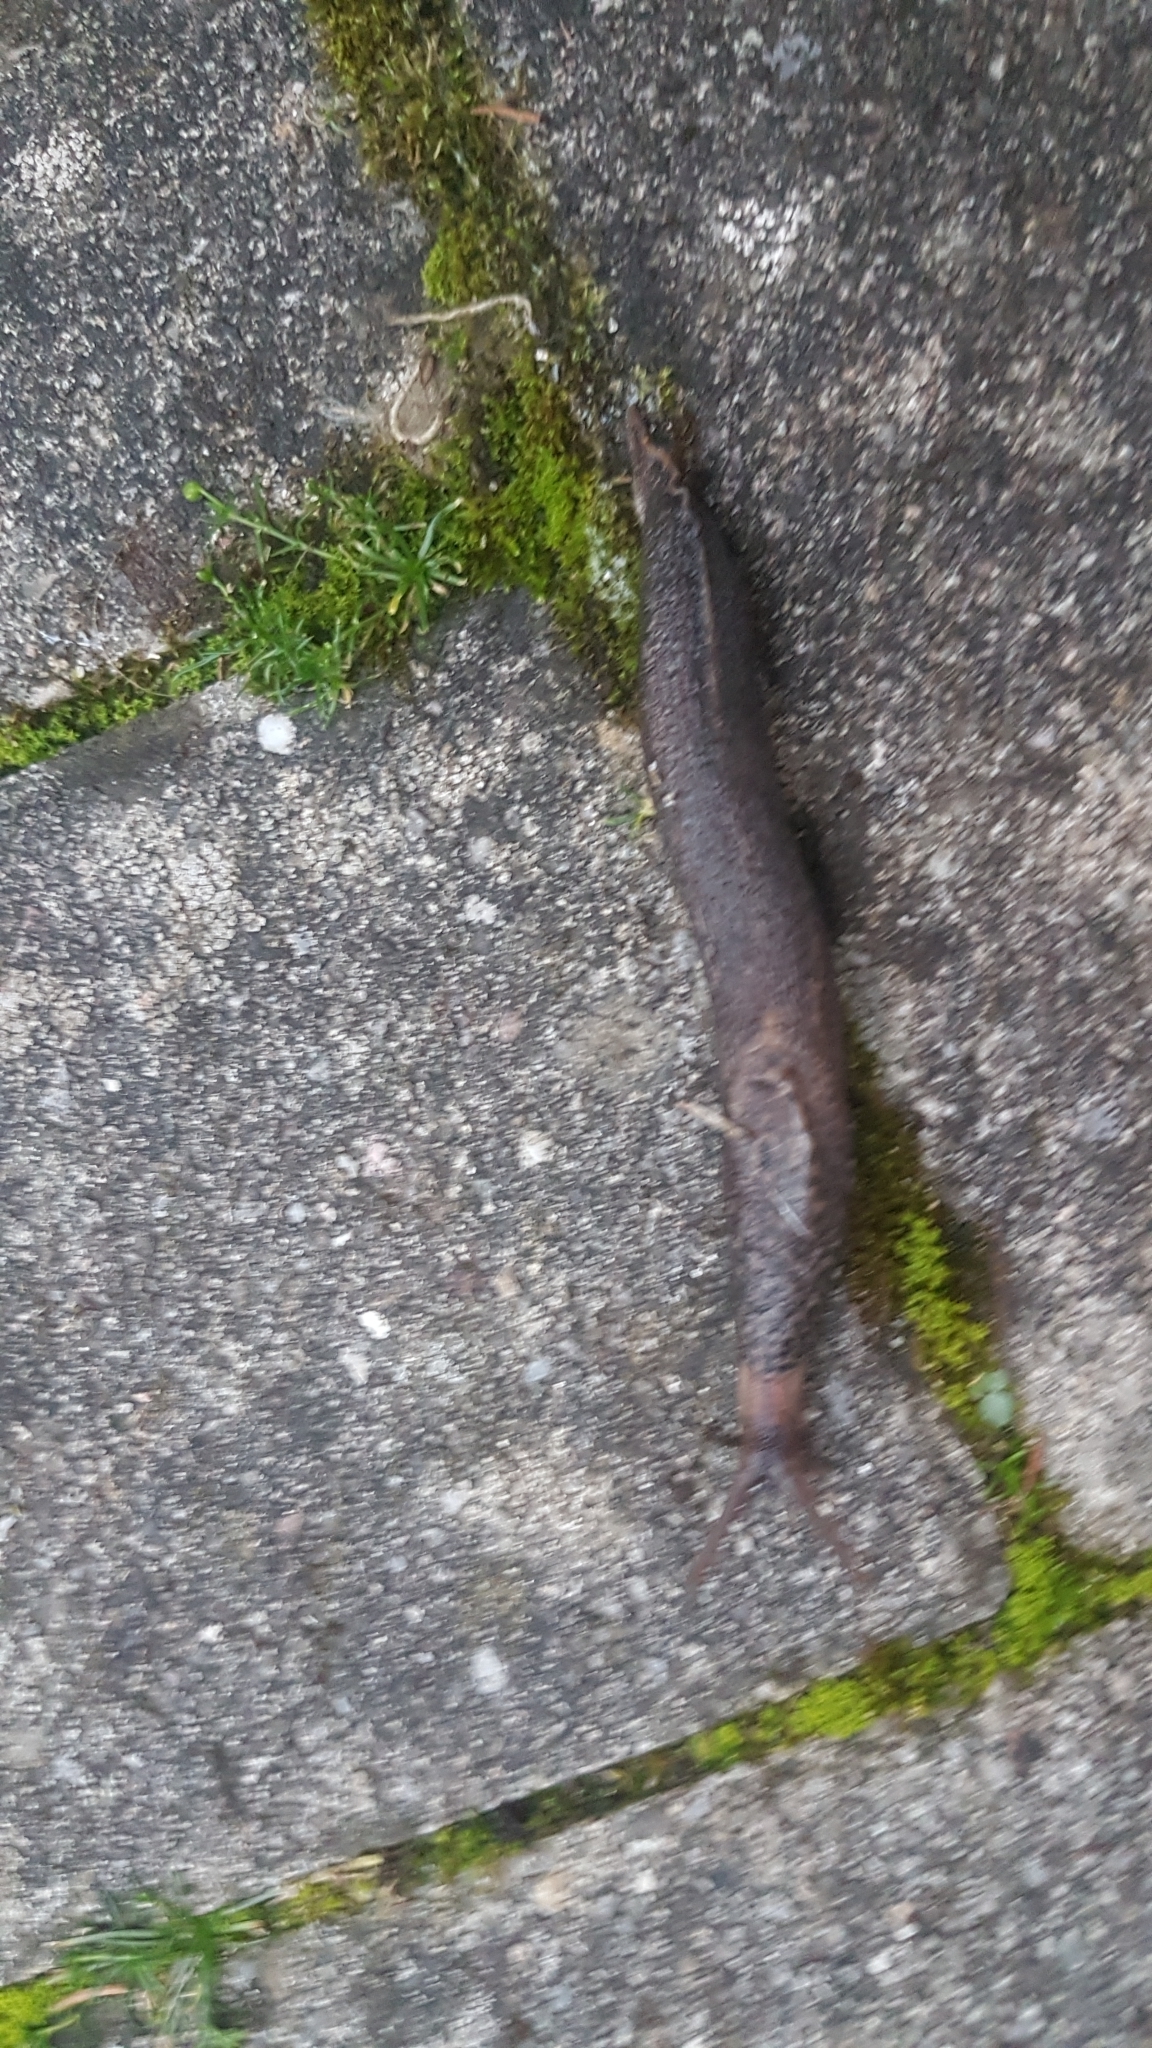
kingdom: Animalia
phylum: Mollusca
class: Gastropoda
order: Stylommatophora
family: Limacidae
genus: Limax
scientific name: Limax maximus
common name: Great grey slug
